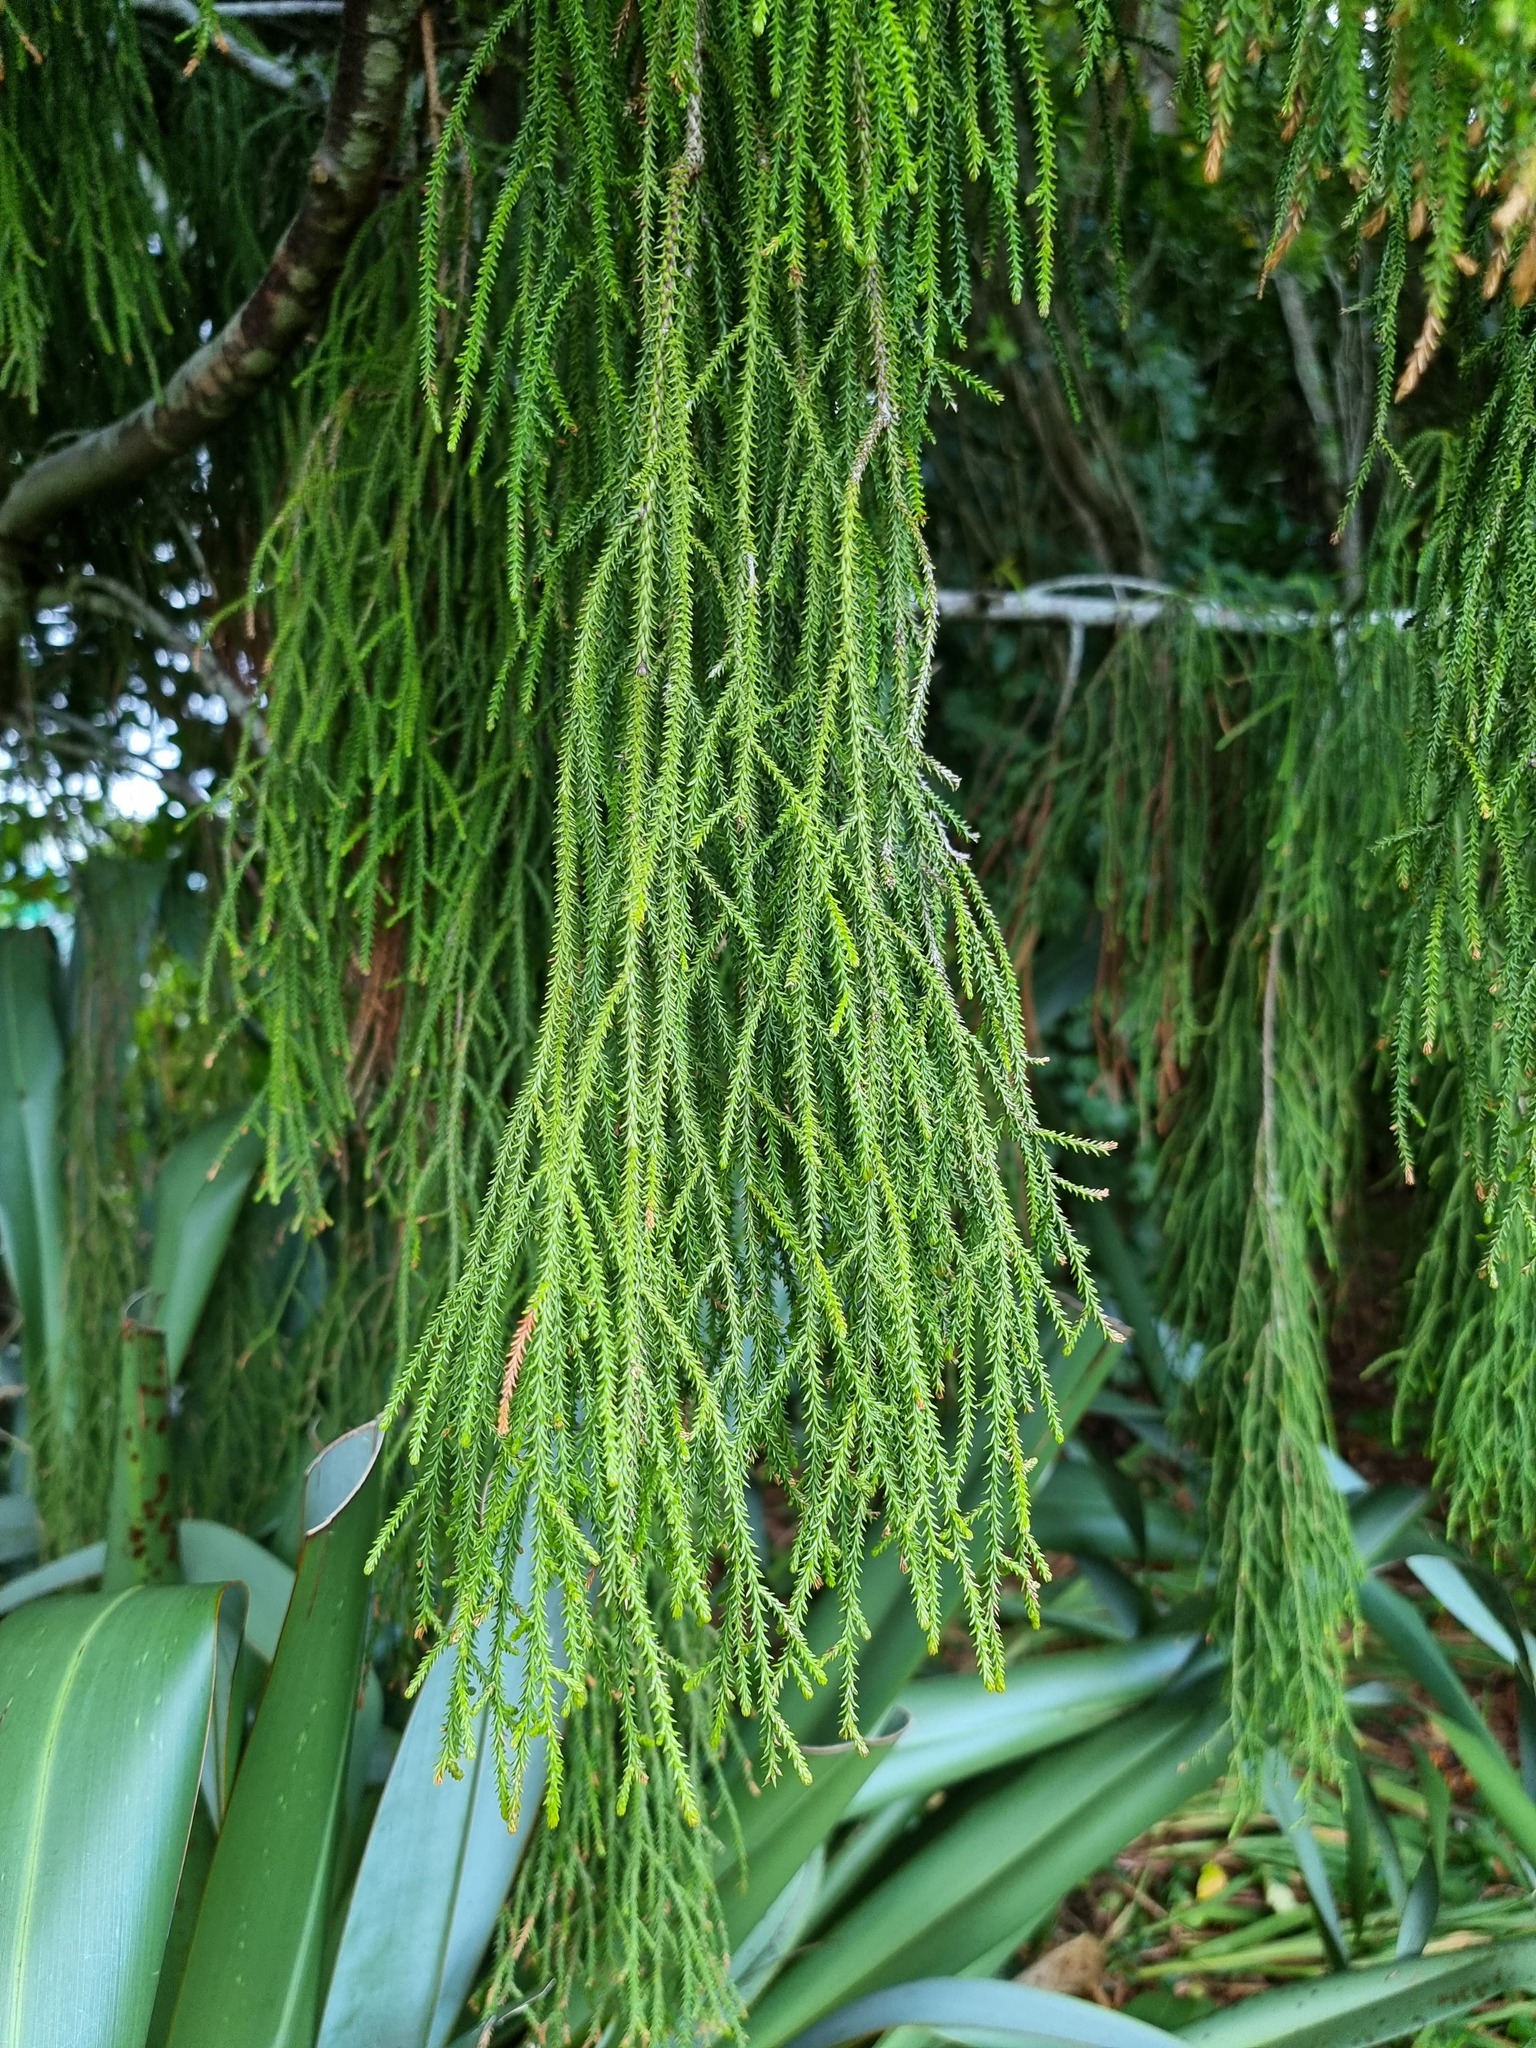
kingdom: Plantae
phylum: Tracheophyta
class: Pinopsida
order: Pinales
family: Podocarpaceae
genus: Dacrydium
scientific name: Dacrydium cupressinum
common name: Red pine
